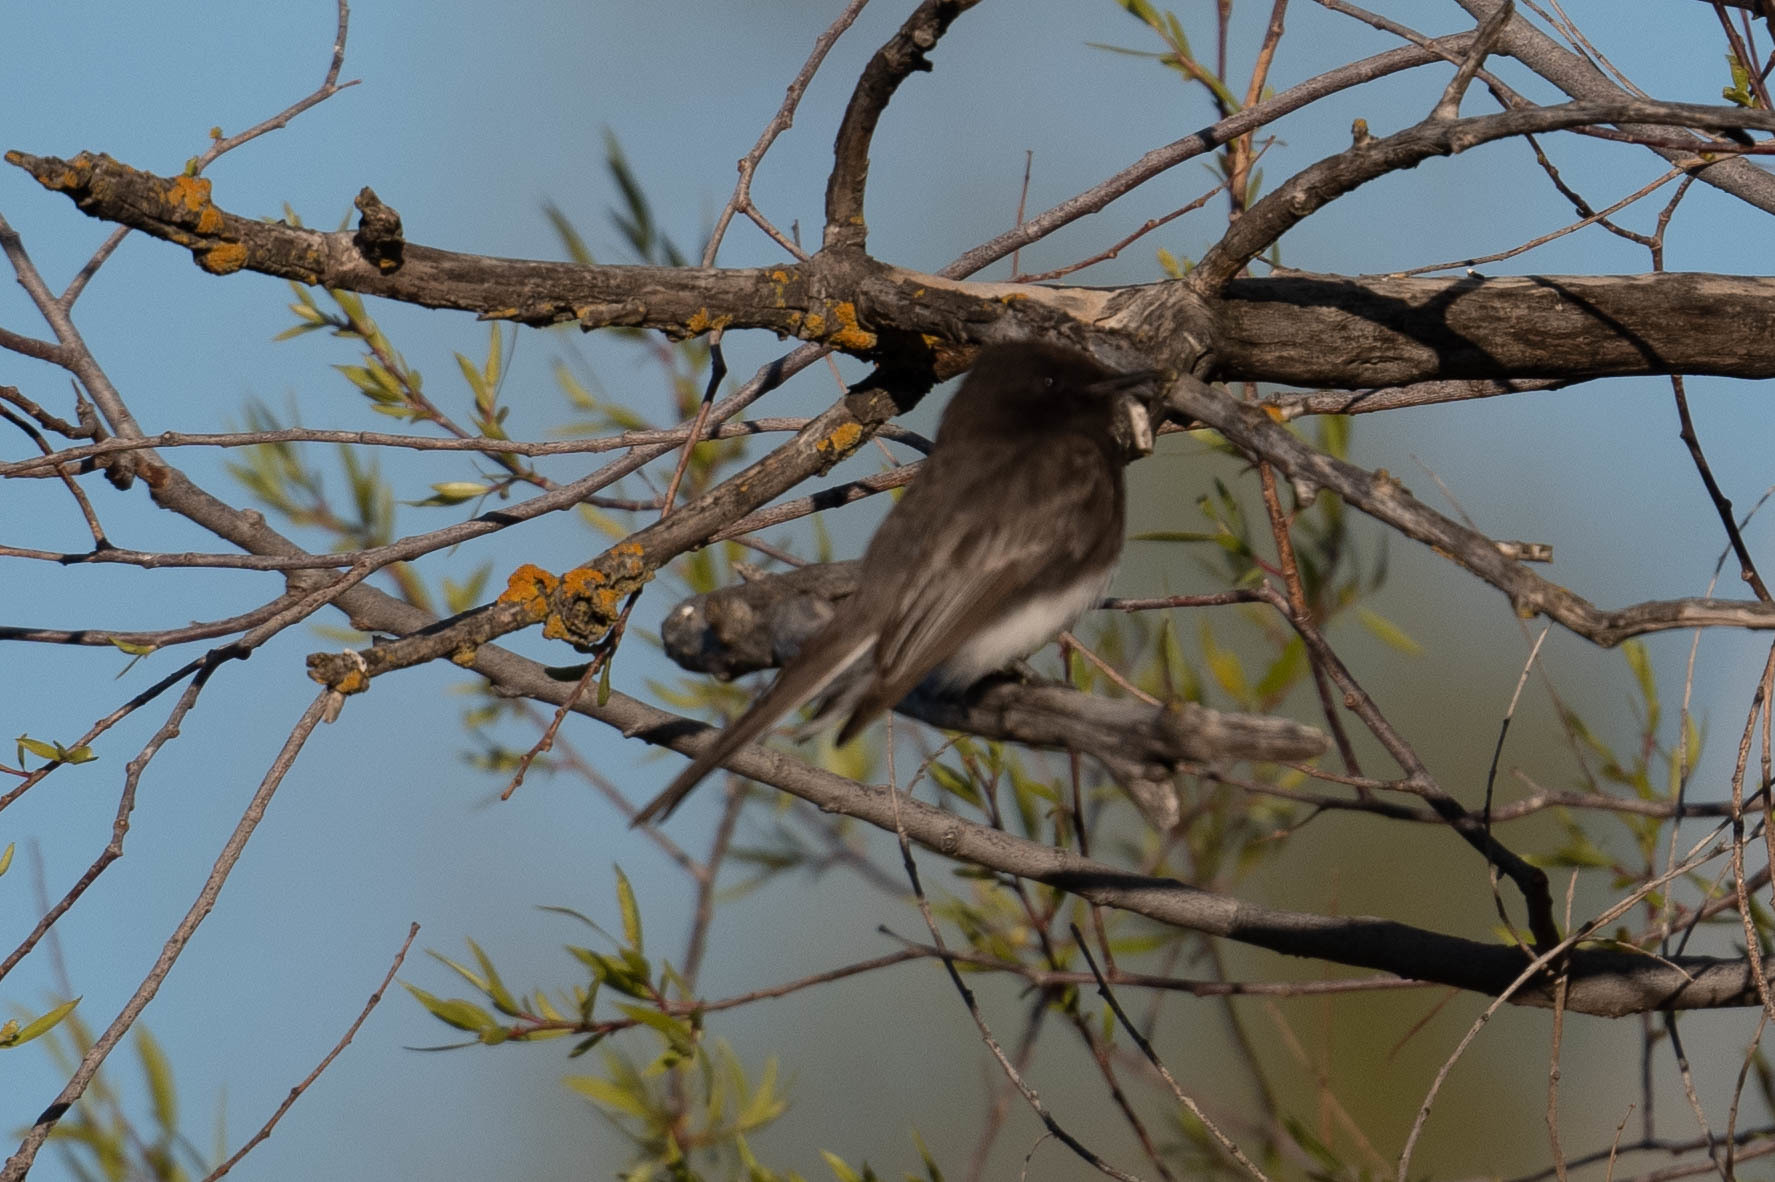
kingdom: Animalia
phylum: Chordata
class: Aves
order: Passeriformes
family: Tyrannidae
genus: Sayornis
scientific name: Sayornis nigricans
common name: Black phoebe
